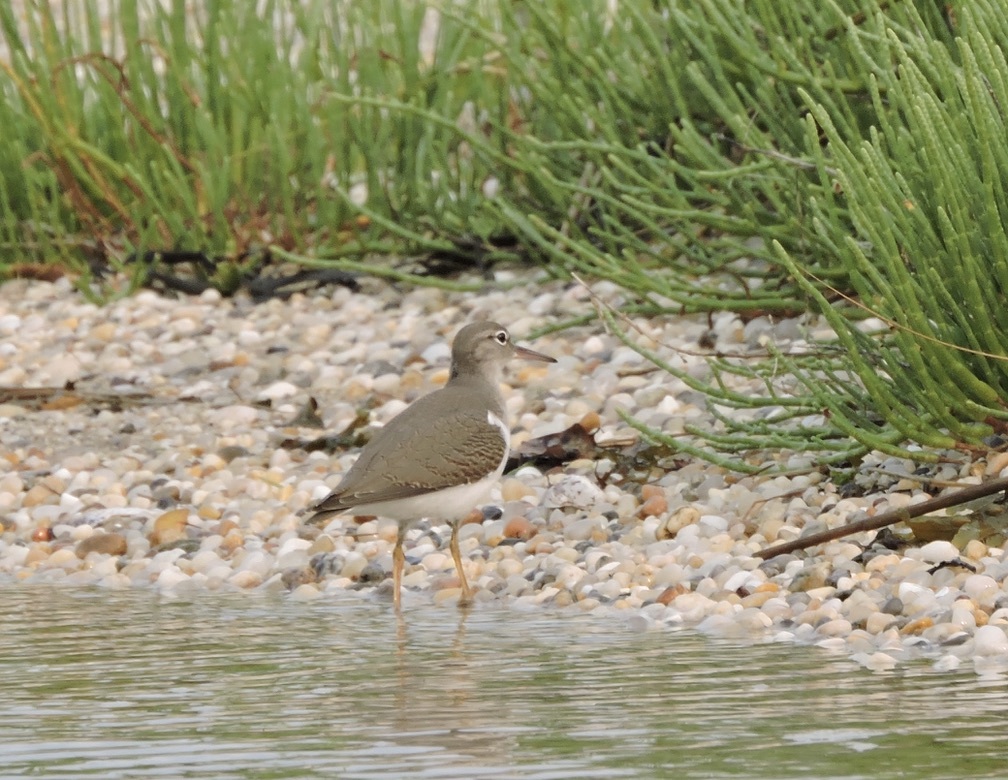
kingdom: Animalia
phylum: Chordata
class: Aves
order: Charadriiformes
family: Scolopacidae
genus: Actitis
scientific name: Actitis macularius
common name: Spotted sandpiper
